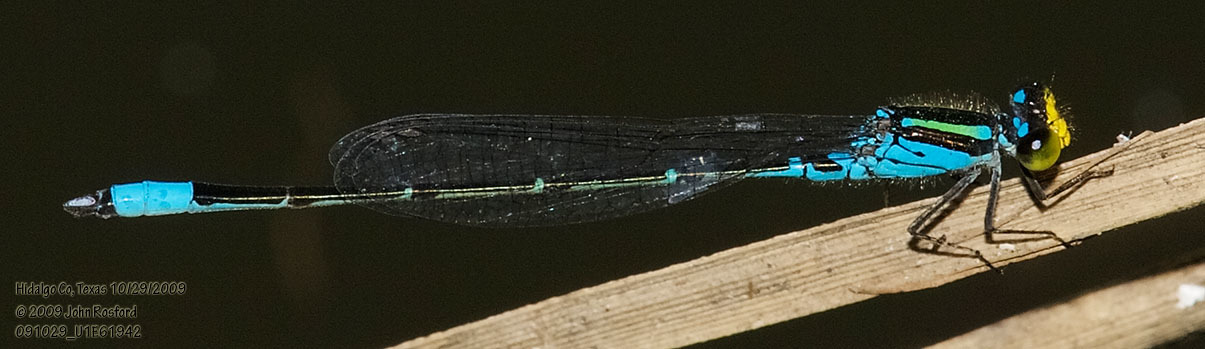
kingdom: Animalia
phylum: Arthropoda
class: Insecta
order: Odonata
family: Coenagrionidae
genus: Neoerythromma
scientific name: Neoerythromma cultellatum
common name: Caribbean yellowface
